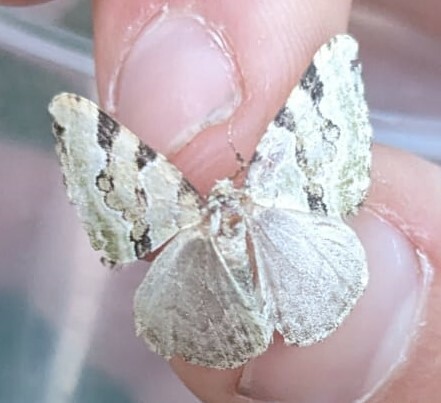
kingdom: Animalia
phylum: Arthropoda
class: Insecta
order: Lepidoptera
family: Geometridae
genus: Colostygia
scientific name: Colostygia pectinataria
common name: Green carpet
